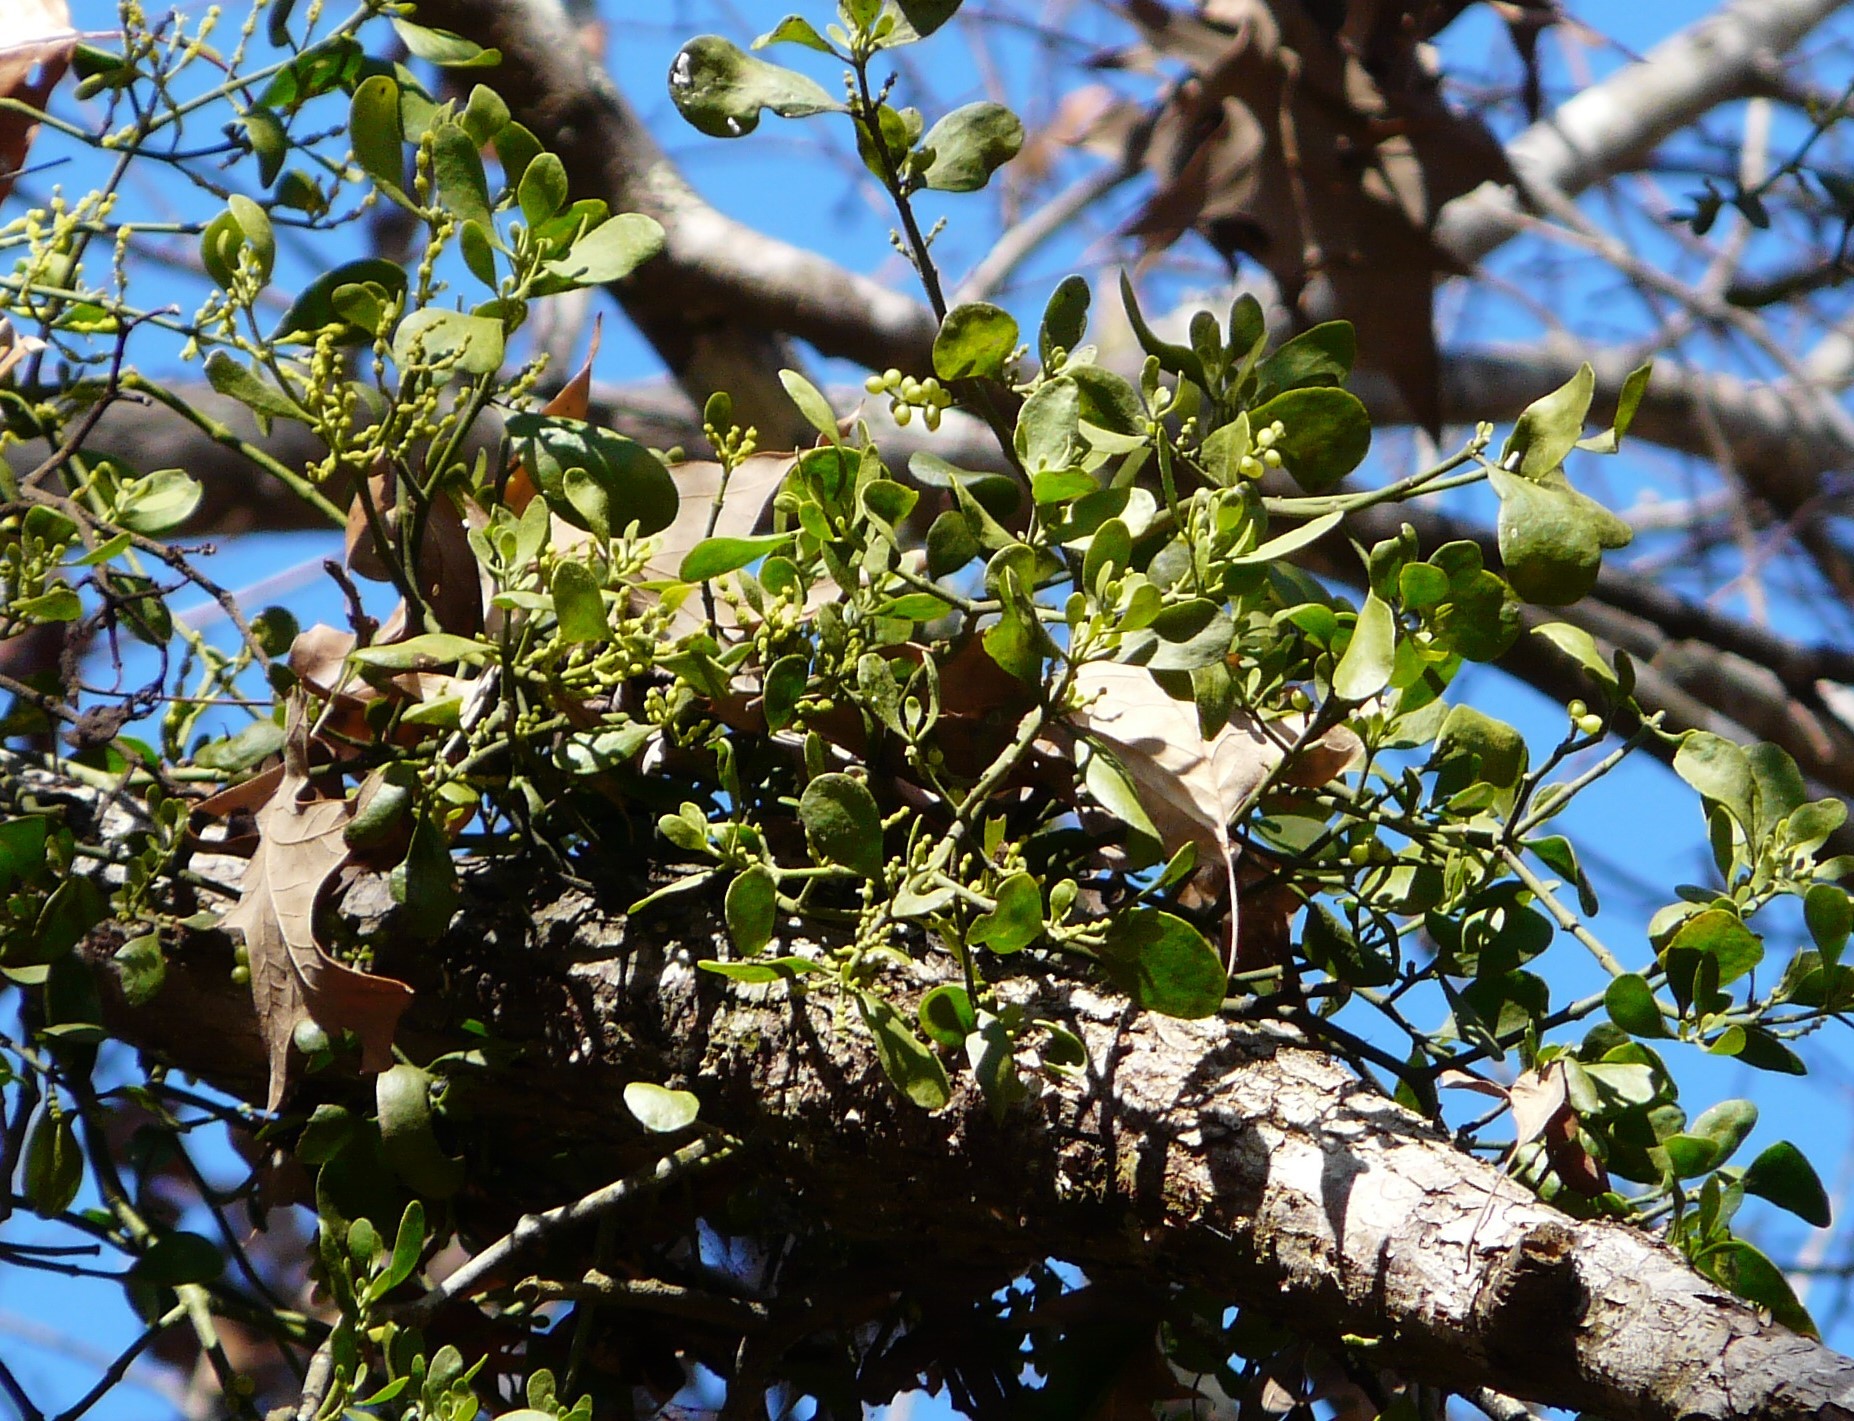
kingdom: Plantae
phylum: Tracheophyta
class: Magnoliopsida
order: Santalales
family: Viscaceae
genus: Phoradendron
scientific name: Phoradendron leucarpum
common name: Pacific mistletoe
